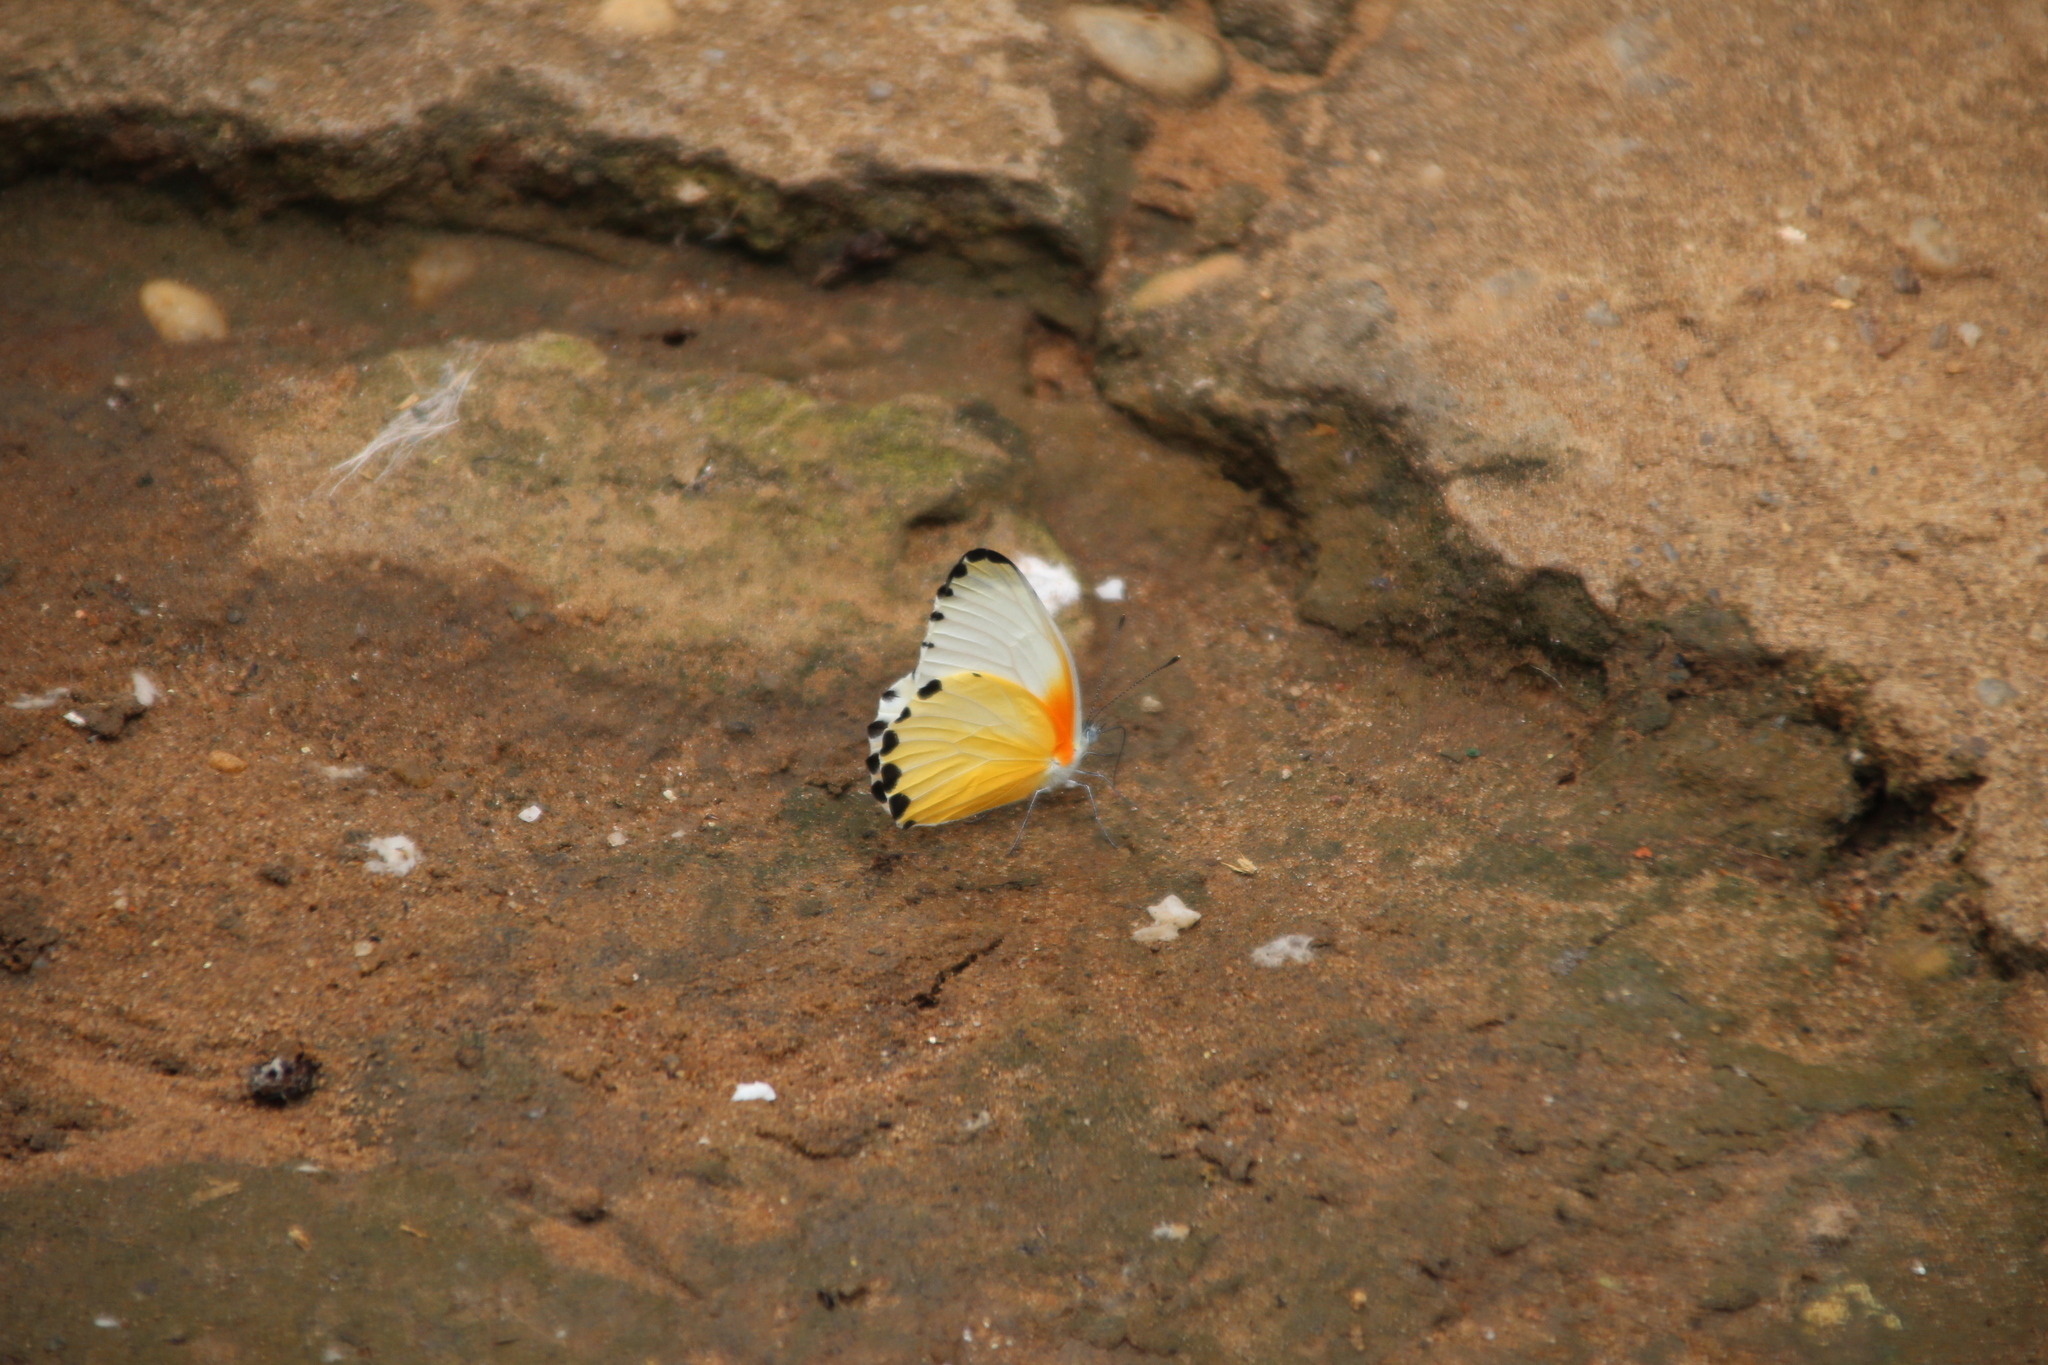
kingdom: Animalia
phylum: Arthropoda
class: Insecta
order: Lepidoptera
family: Pieridae
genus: Mylothris
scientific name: Mylothris agathina
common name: Eastern dotted border
